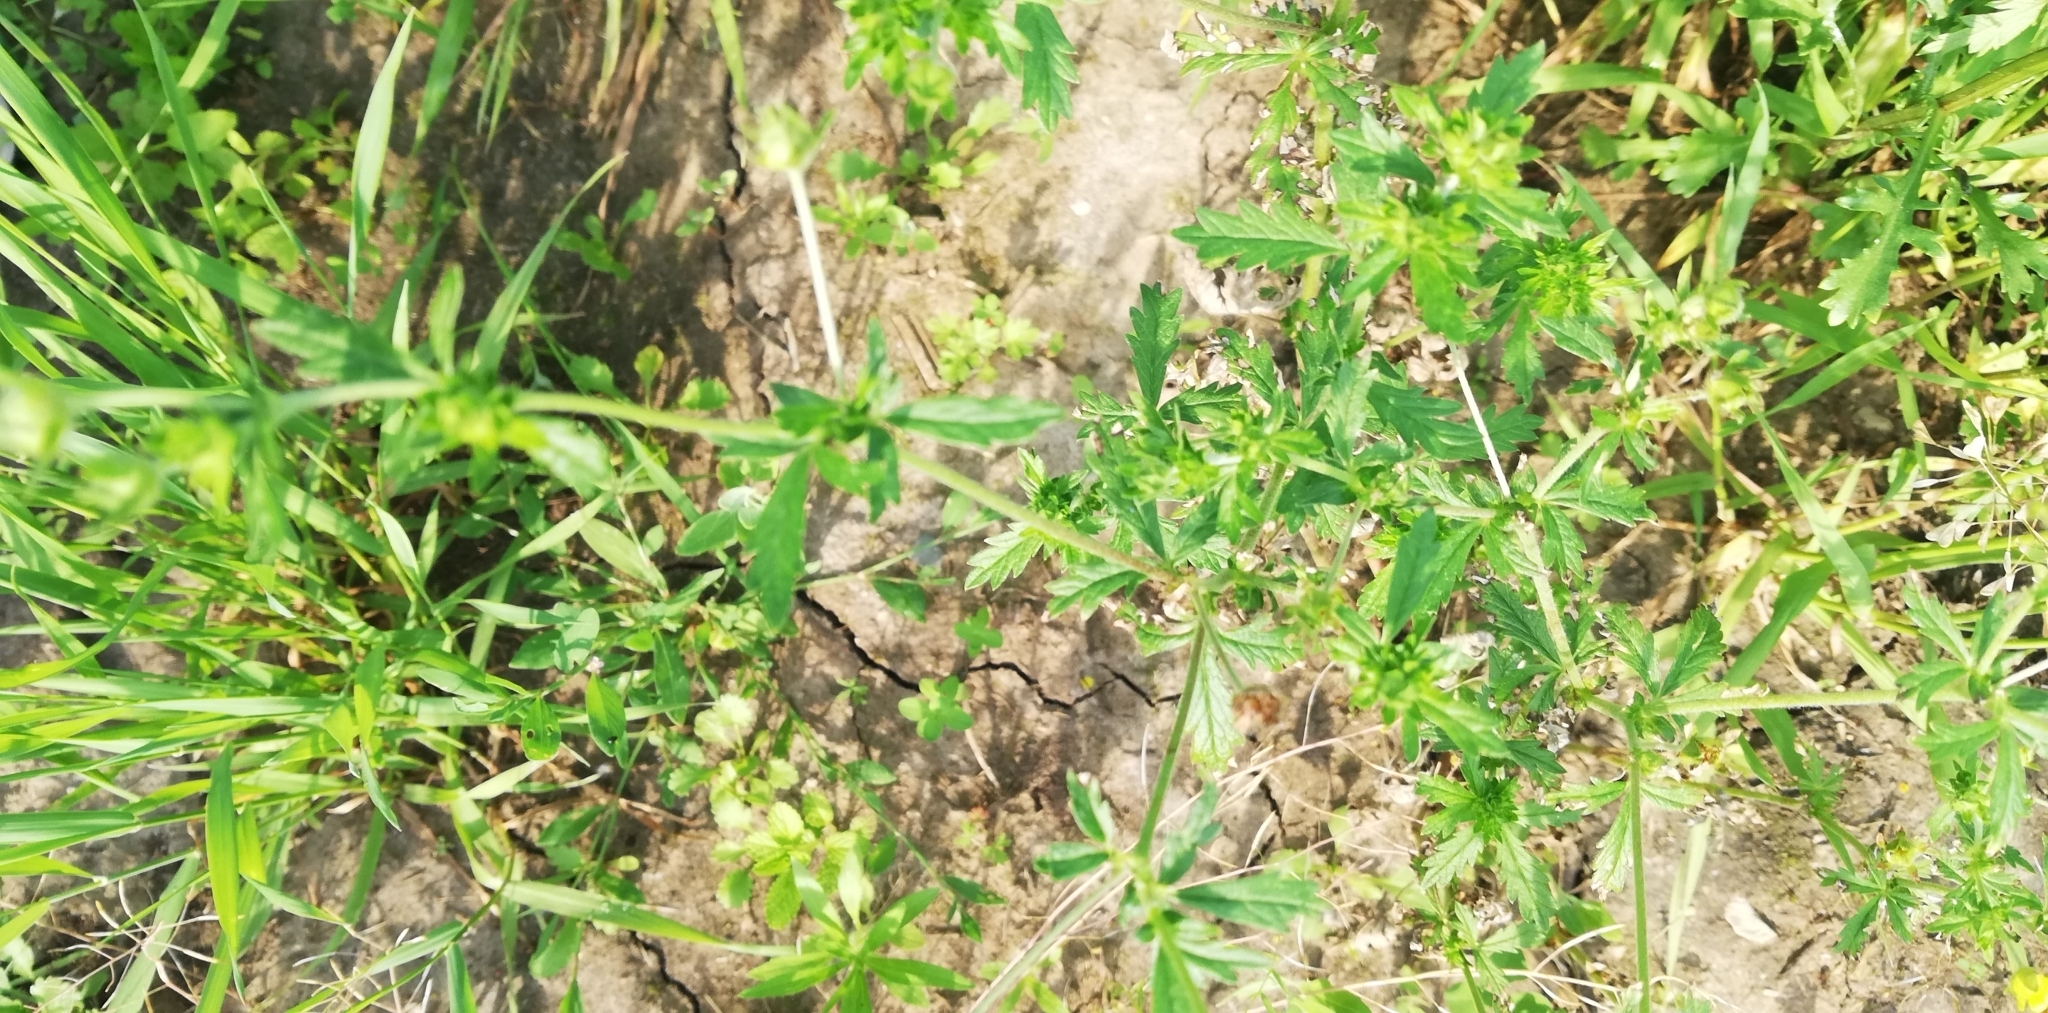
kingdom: Plantae
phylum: Tracheophyta
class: Magnoliopsida
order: Rosales
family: Rosaceae
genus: Potentilla
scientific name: Potentilla argentea
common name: Hoary cinquefoil
